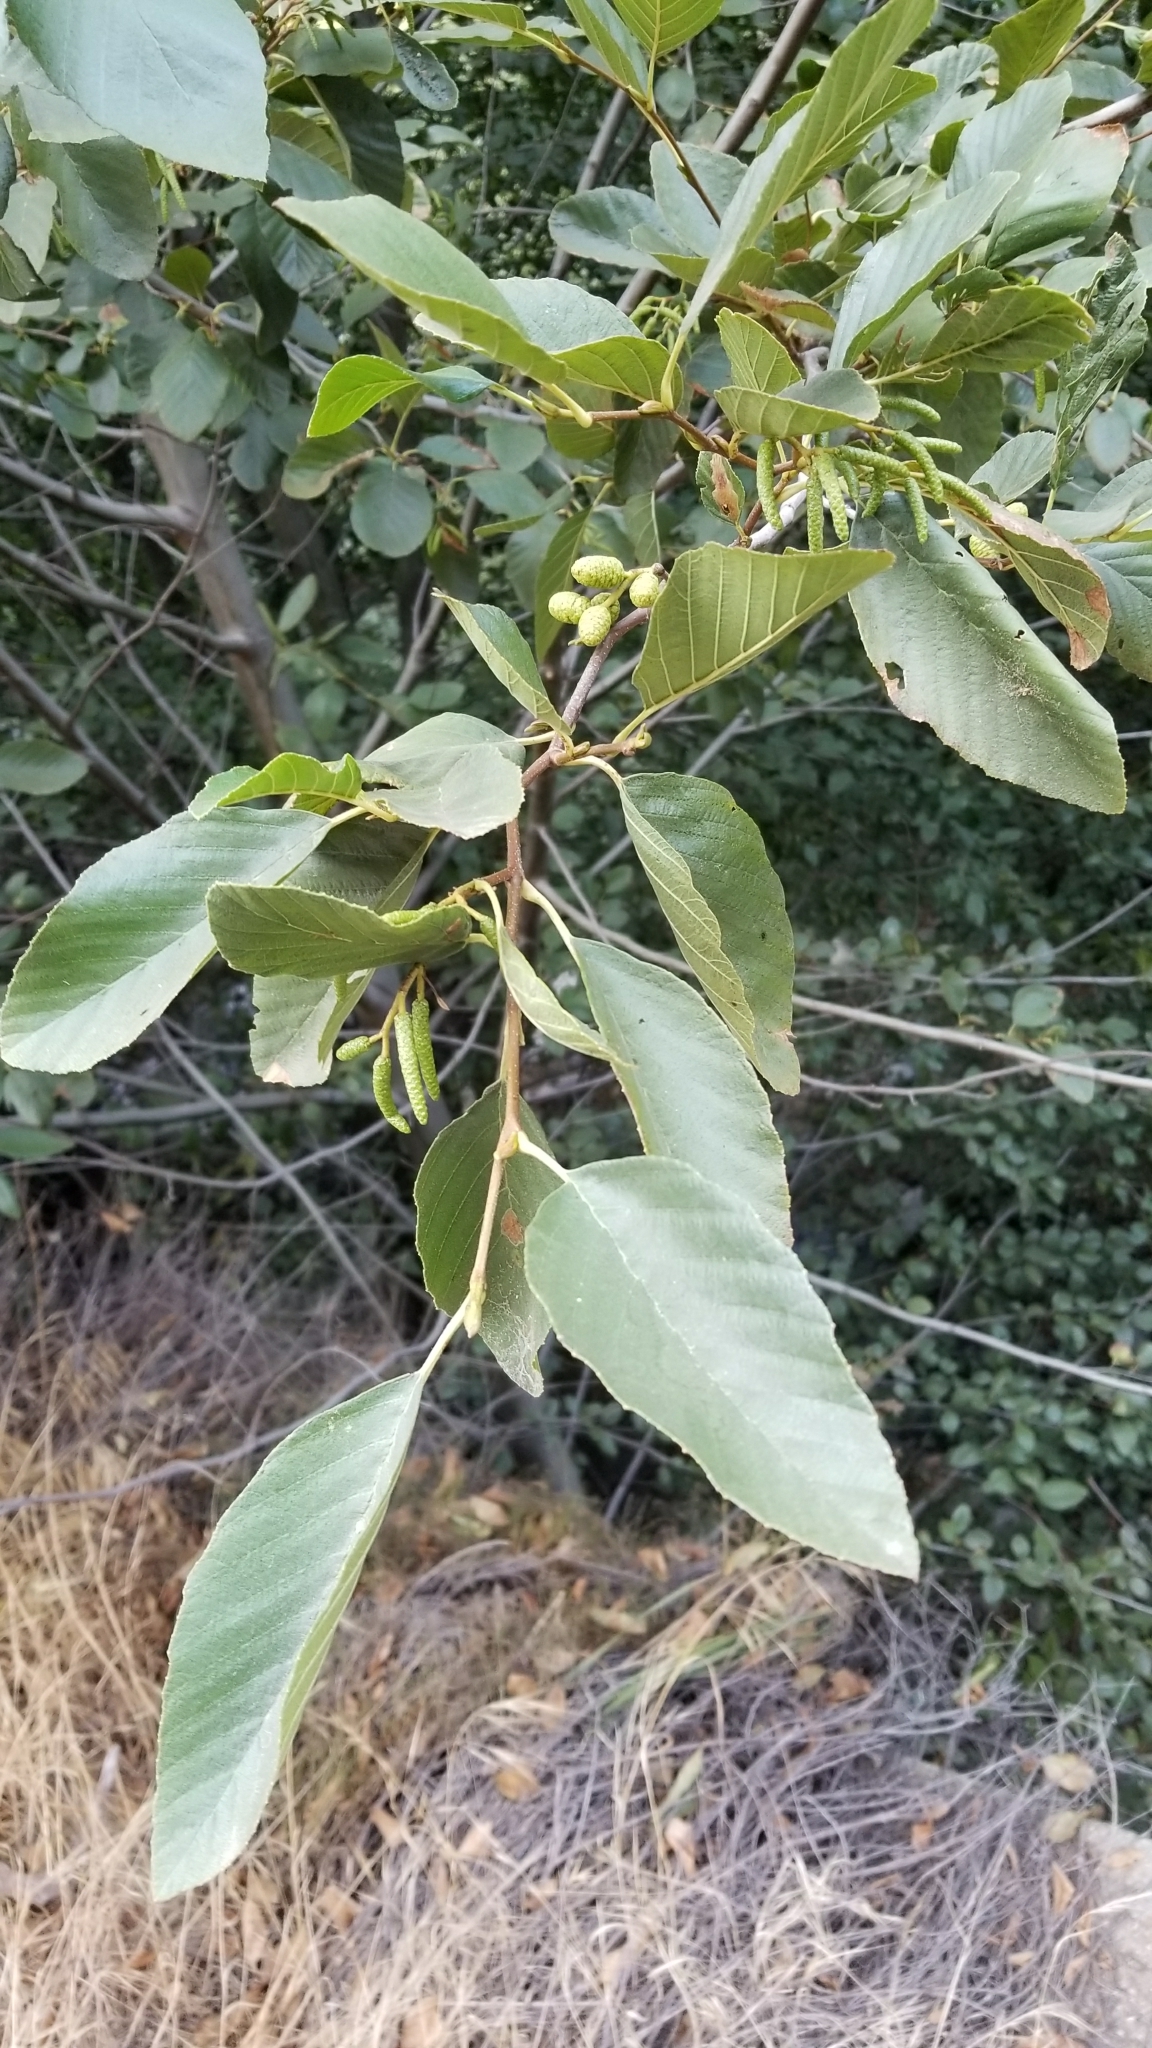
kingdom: Plantae
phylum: Tracheophyta
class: Magnoliopsida
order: Fagales
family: Betulaceae
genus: Alnus
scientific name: Alnus rhombifolia
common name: California alder
